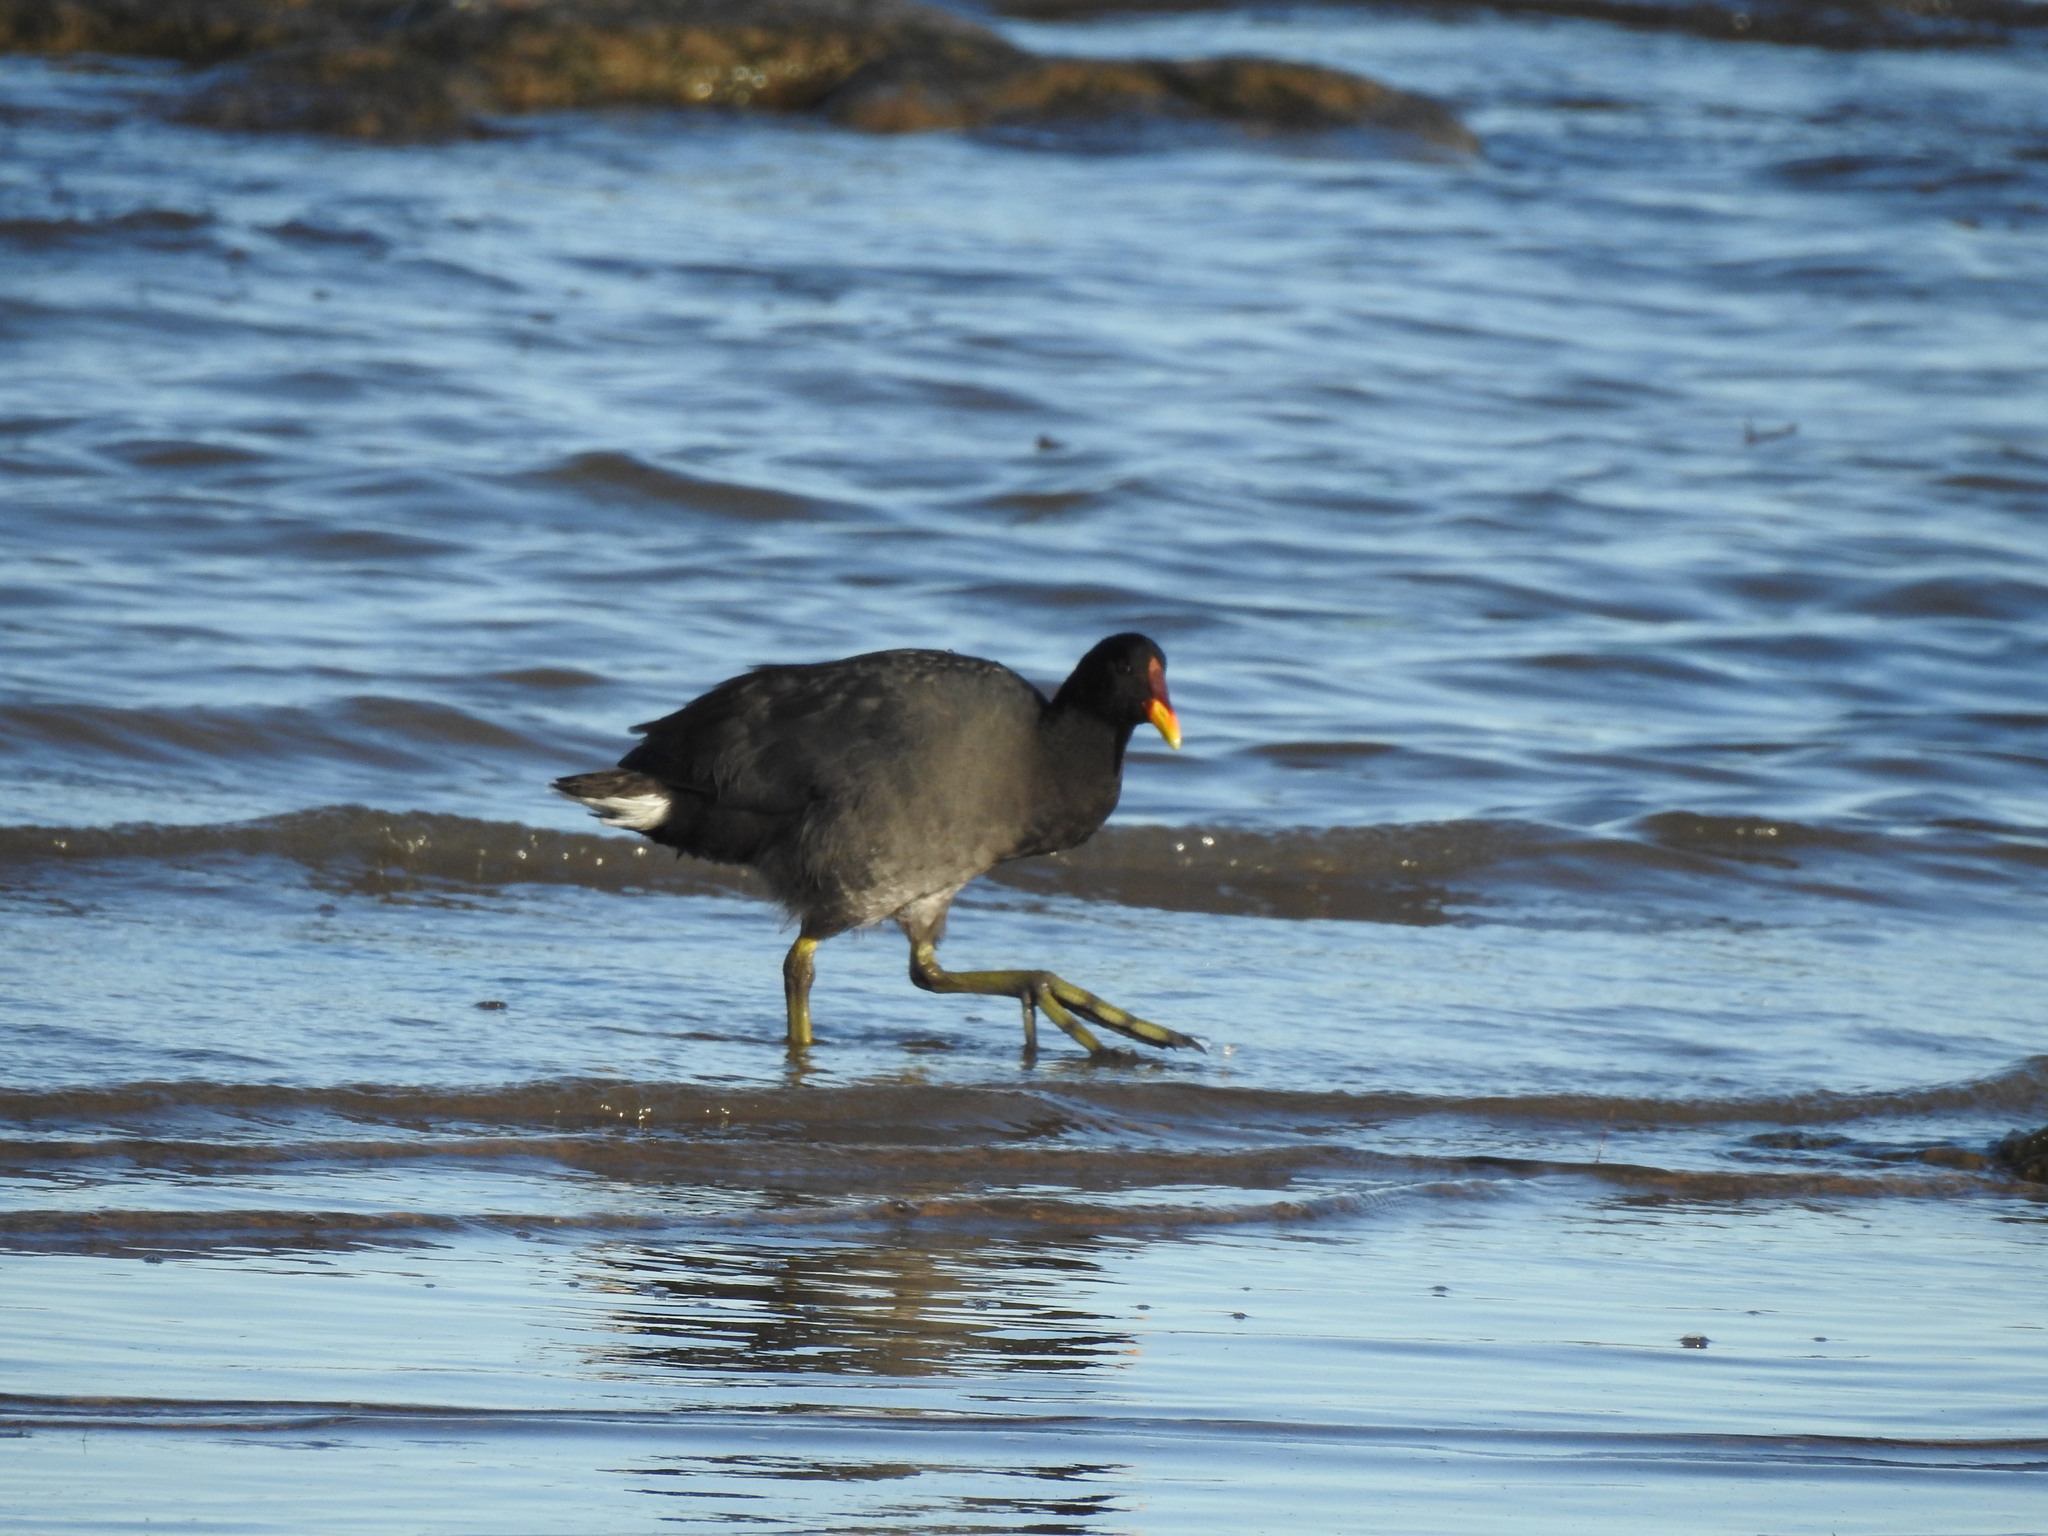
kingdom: Animalia
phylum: Chordata
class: Aves
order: Gruiformes
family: Rallidae
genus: Fulica
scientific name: Fulica rufifrons
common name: Red-fronted coot
